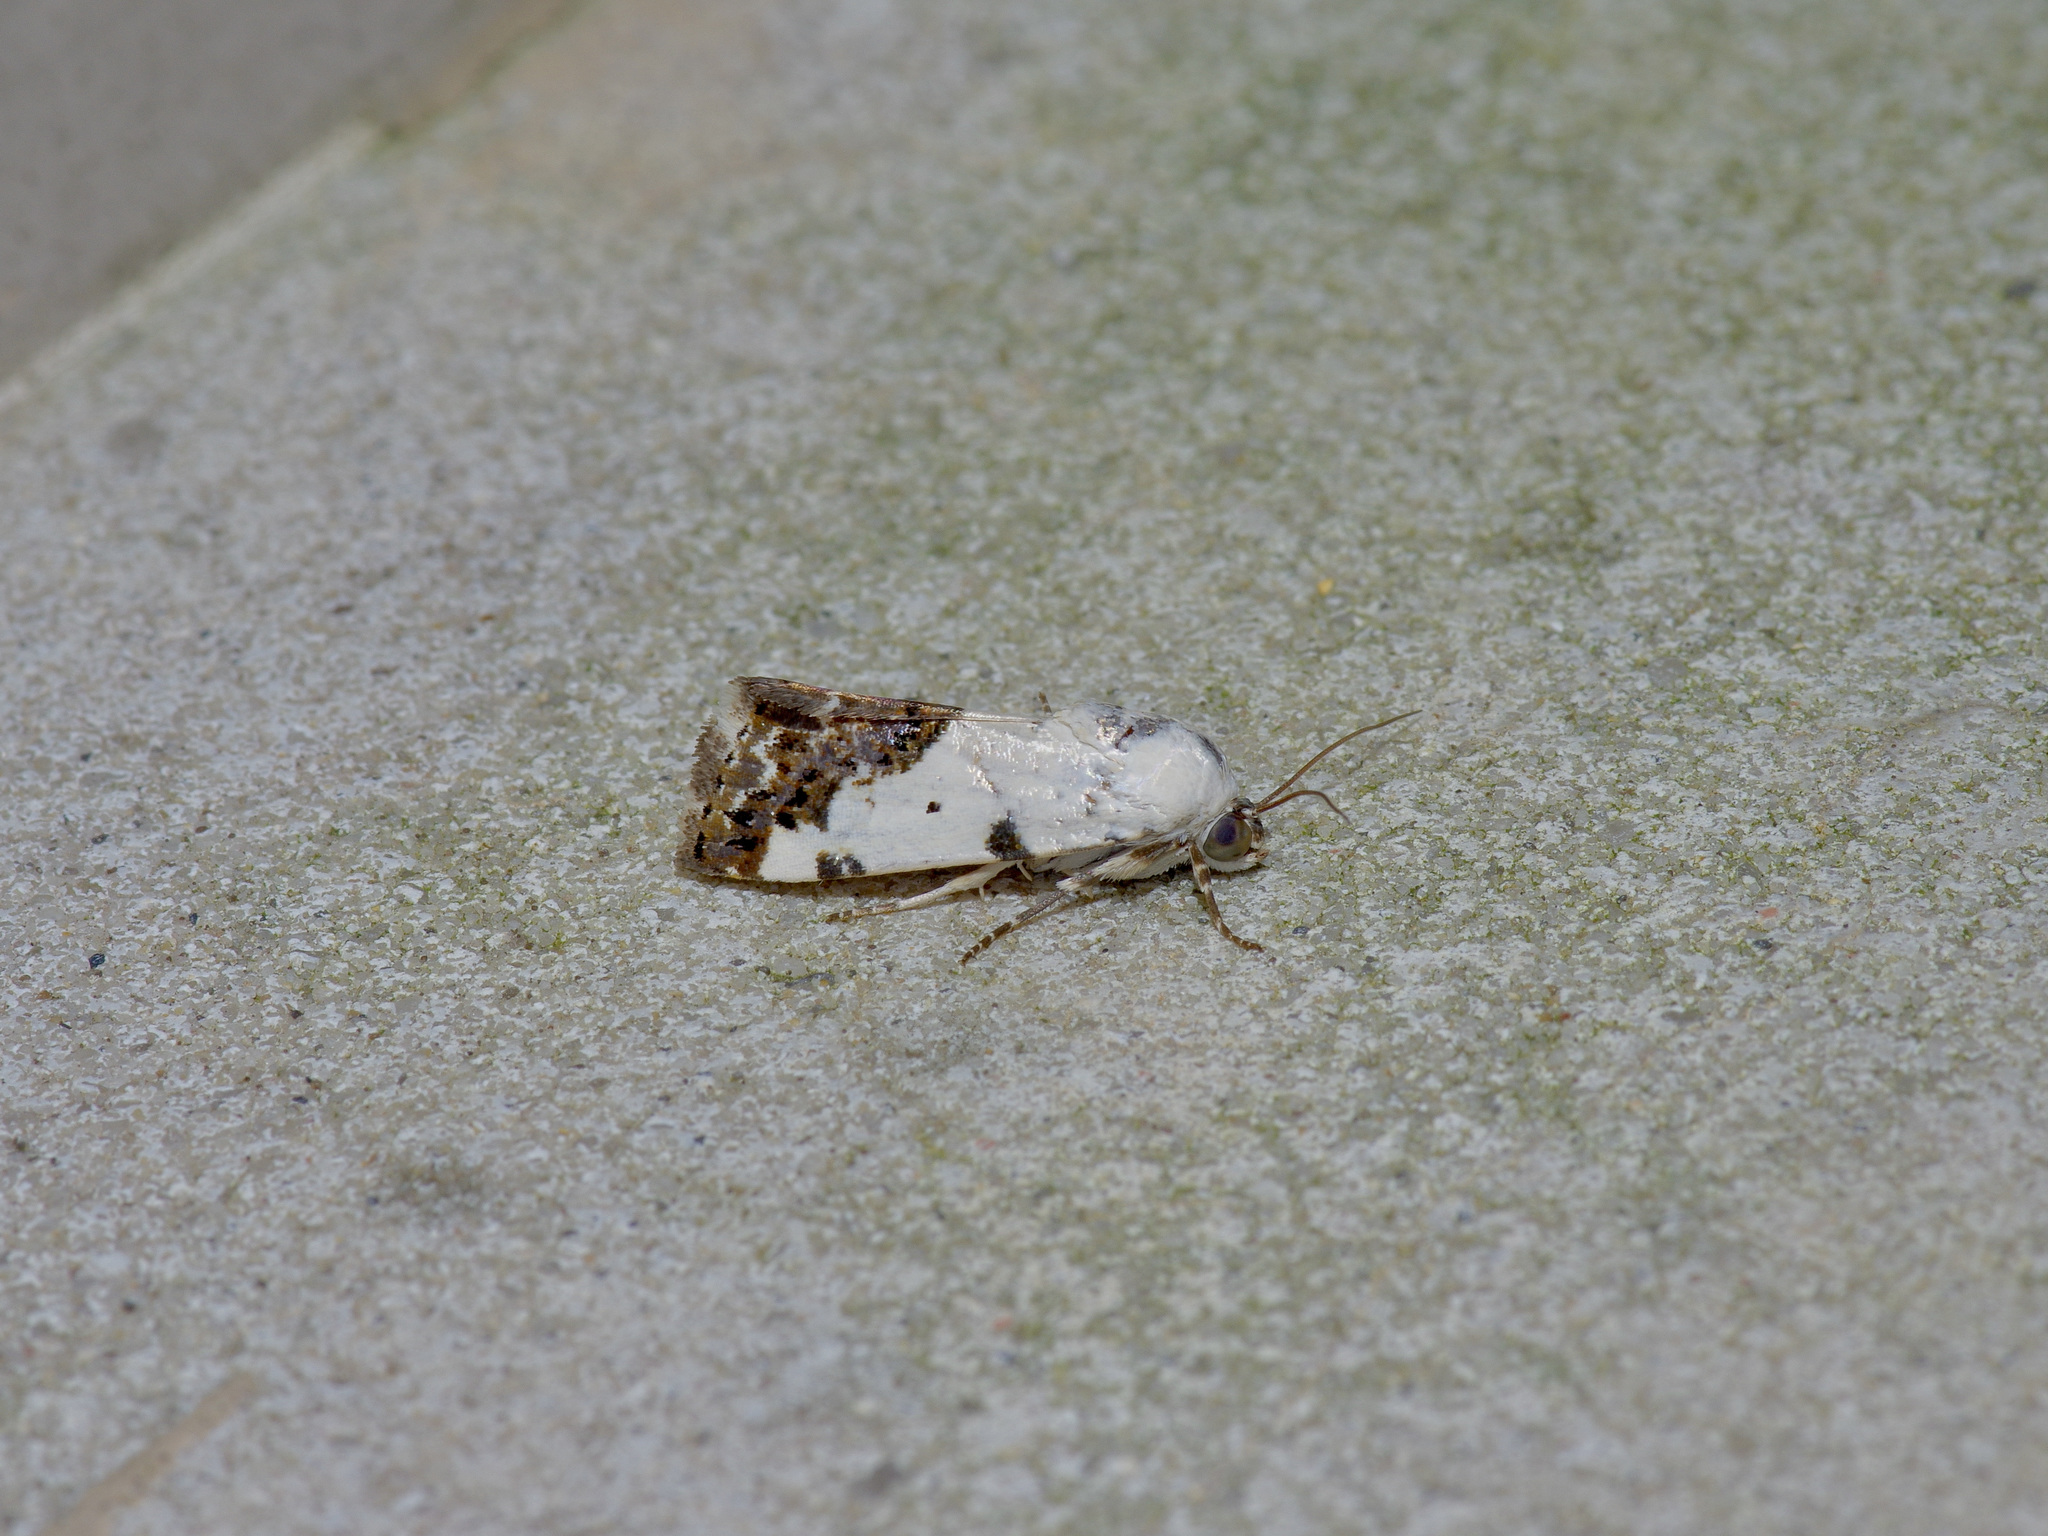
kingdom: Animalia
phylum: Arthropoda
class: Insecta
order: Lepidoptera
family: Noctuidae
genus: Acontia
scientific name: Acontia aprica
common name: Nun
